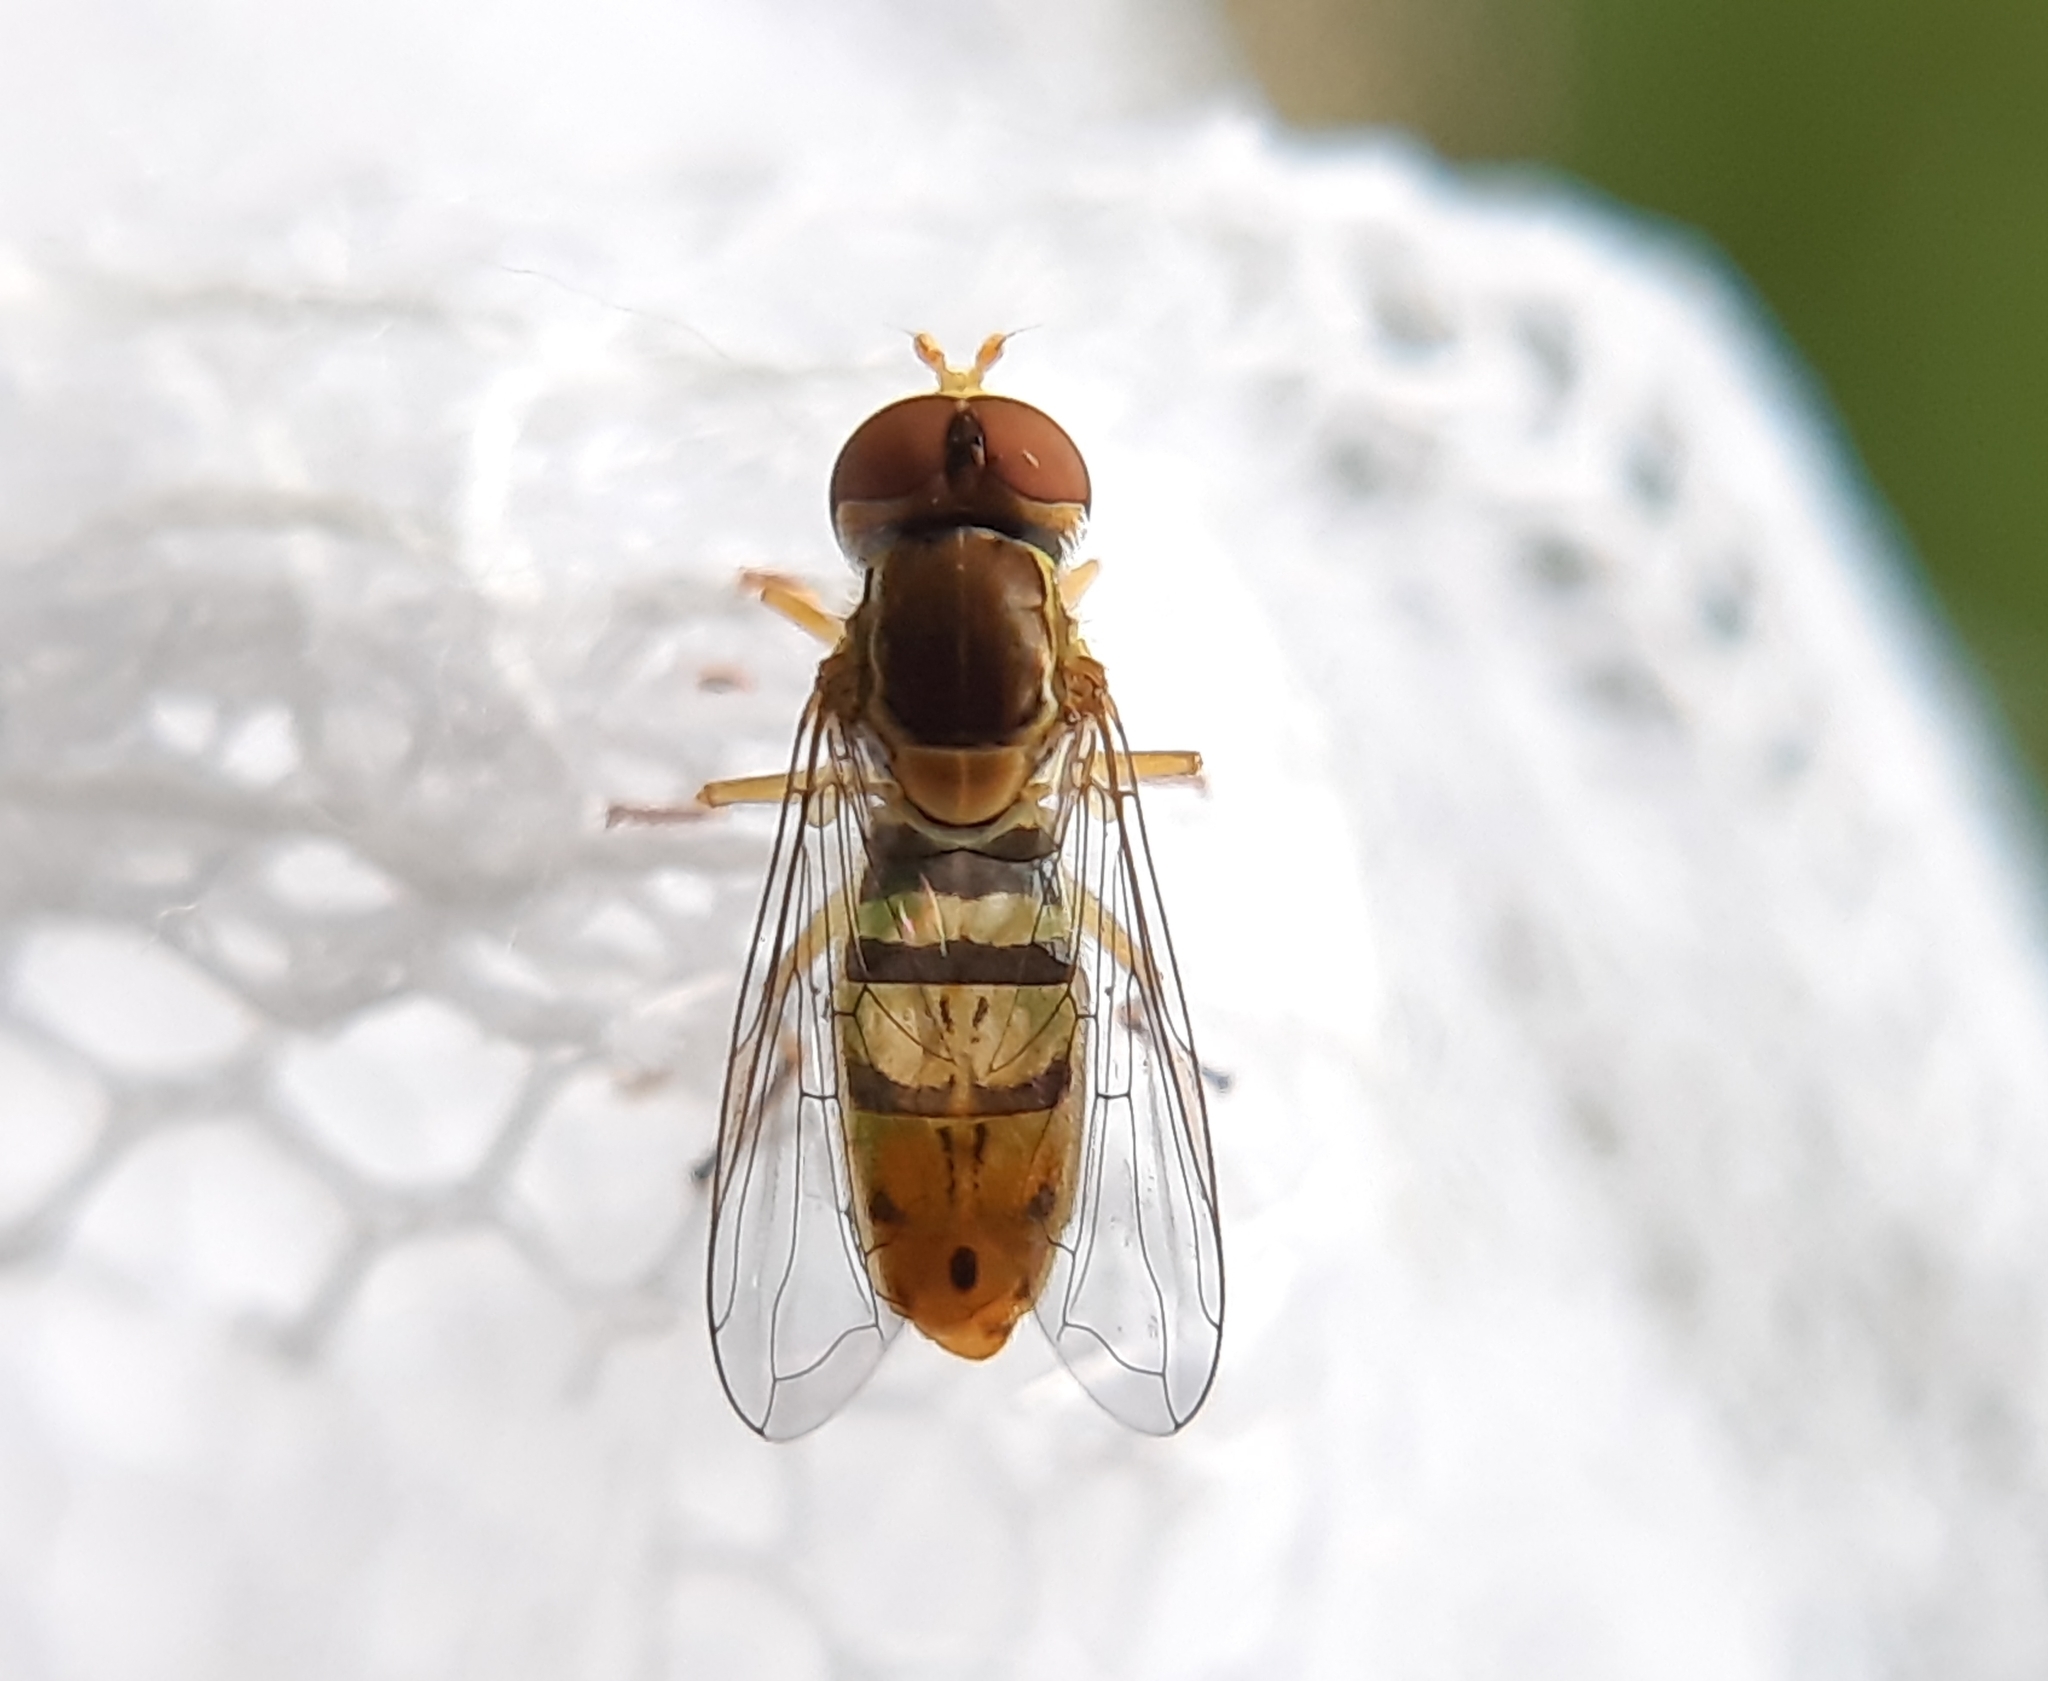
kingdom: Animalia
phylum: Arthropoda
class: Insecta
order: Diptera
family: Syrphidae
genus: Toxomerus
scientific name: Toxomerus marginatus
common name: Syrphid fly
